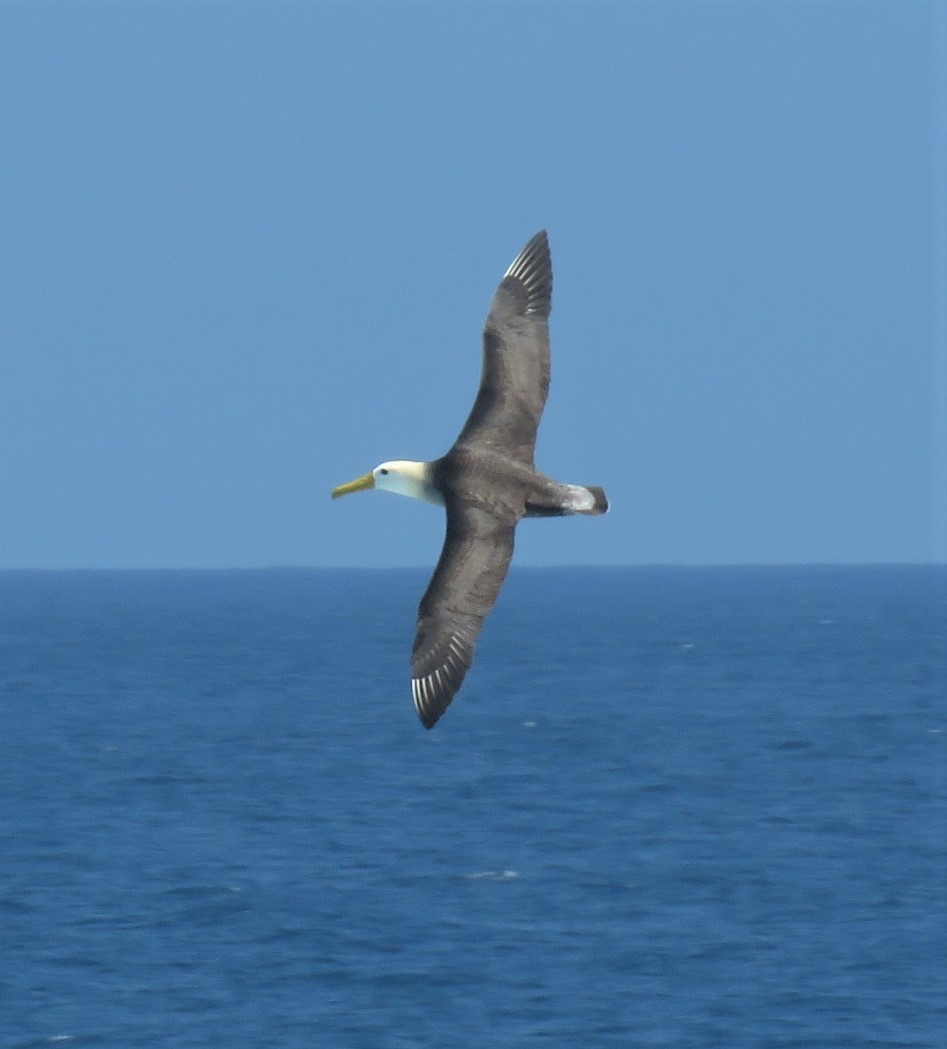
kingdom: Animalia
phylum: Chordata
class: Aves
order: Procellariiformes
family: Diomedeidae
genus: Phoebastria
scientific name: Phoebastria irrorata
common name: Waved albatross
